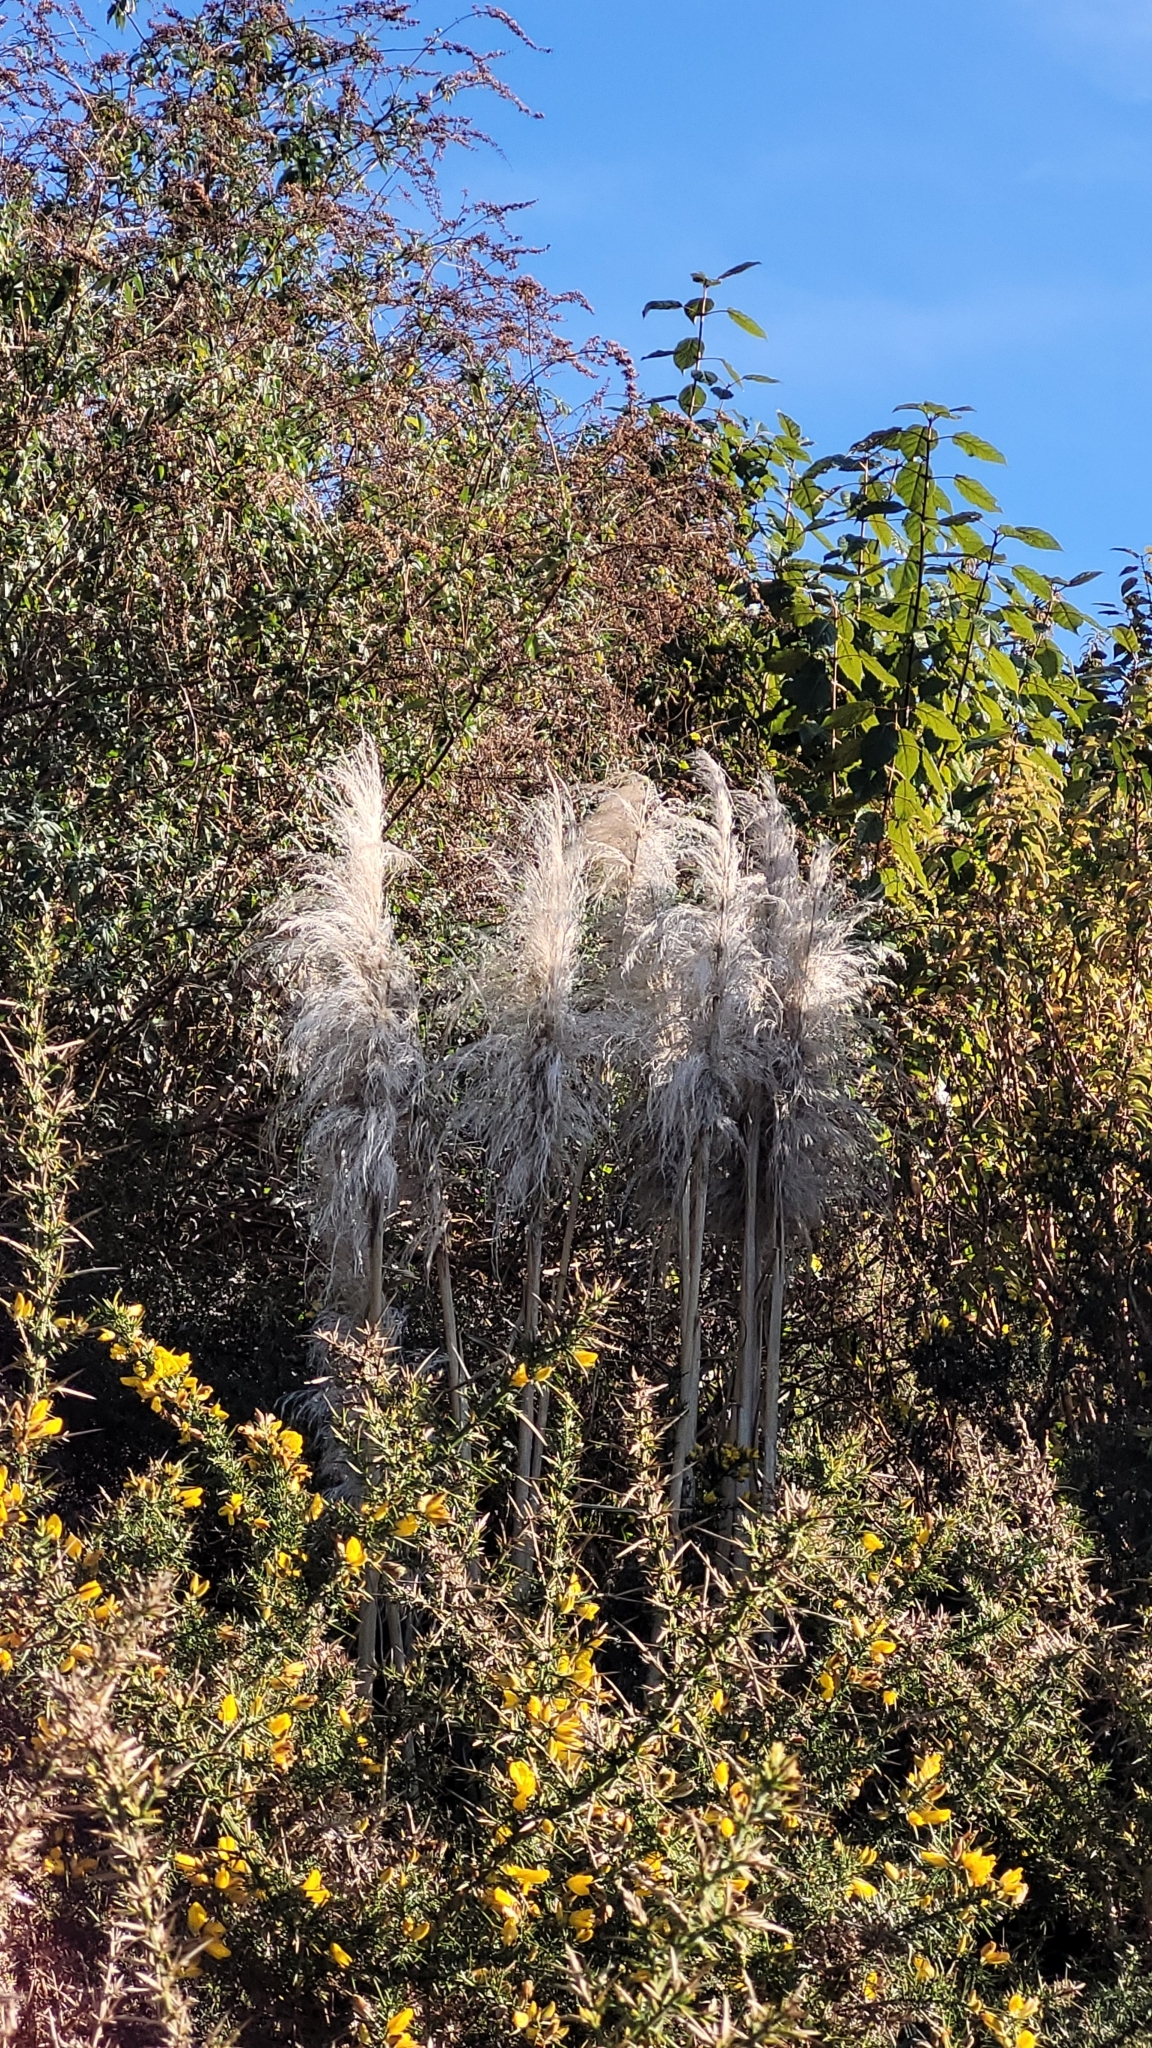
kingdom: Plantae
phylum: Tracheophyta
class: Liliopsida
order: Poales
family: Poaceae
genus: Cortaderia
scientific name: Cortaderia jubata
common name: Purple pampas grass
